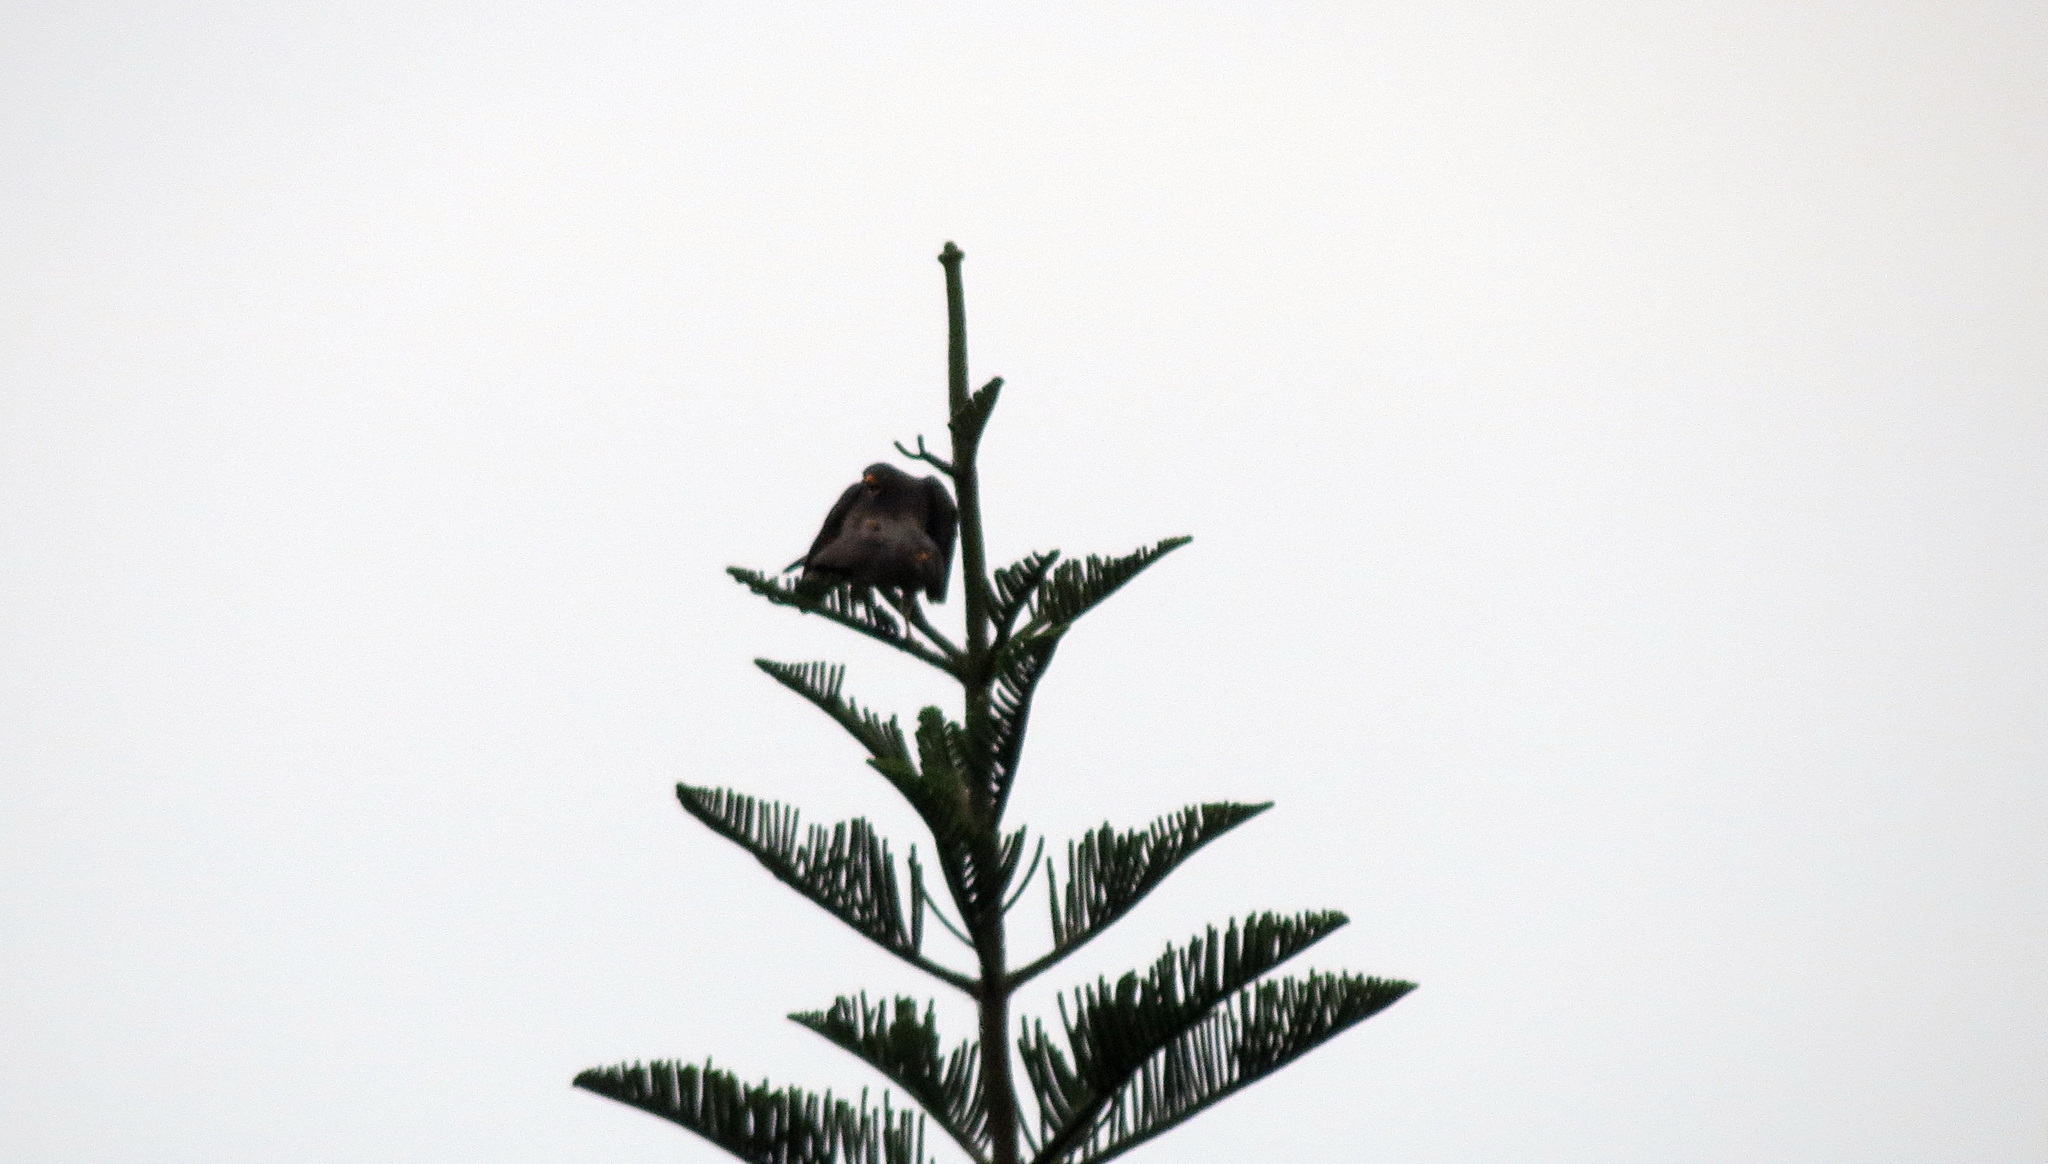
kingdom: Animalia
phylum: Chordata
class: Aves
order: Accipitriformes
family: Accipitridae
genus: Rupornis
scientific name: Rupornis magnirostris
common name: Roadside hawk
